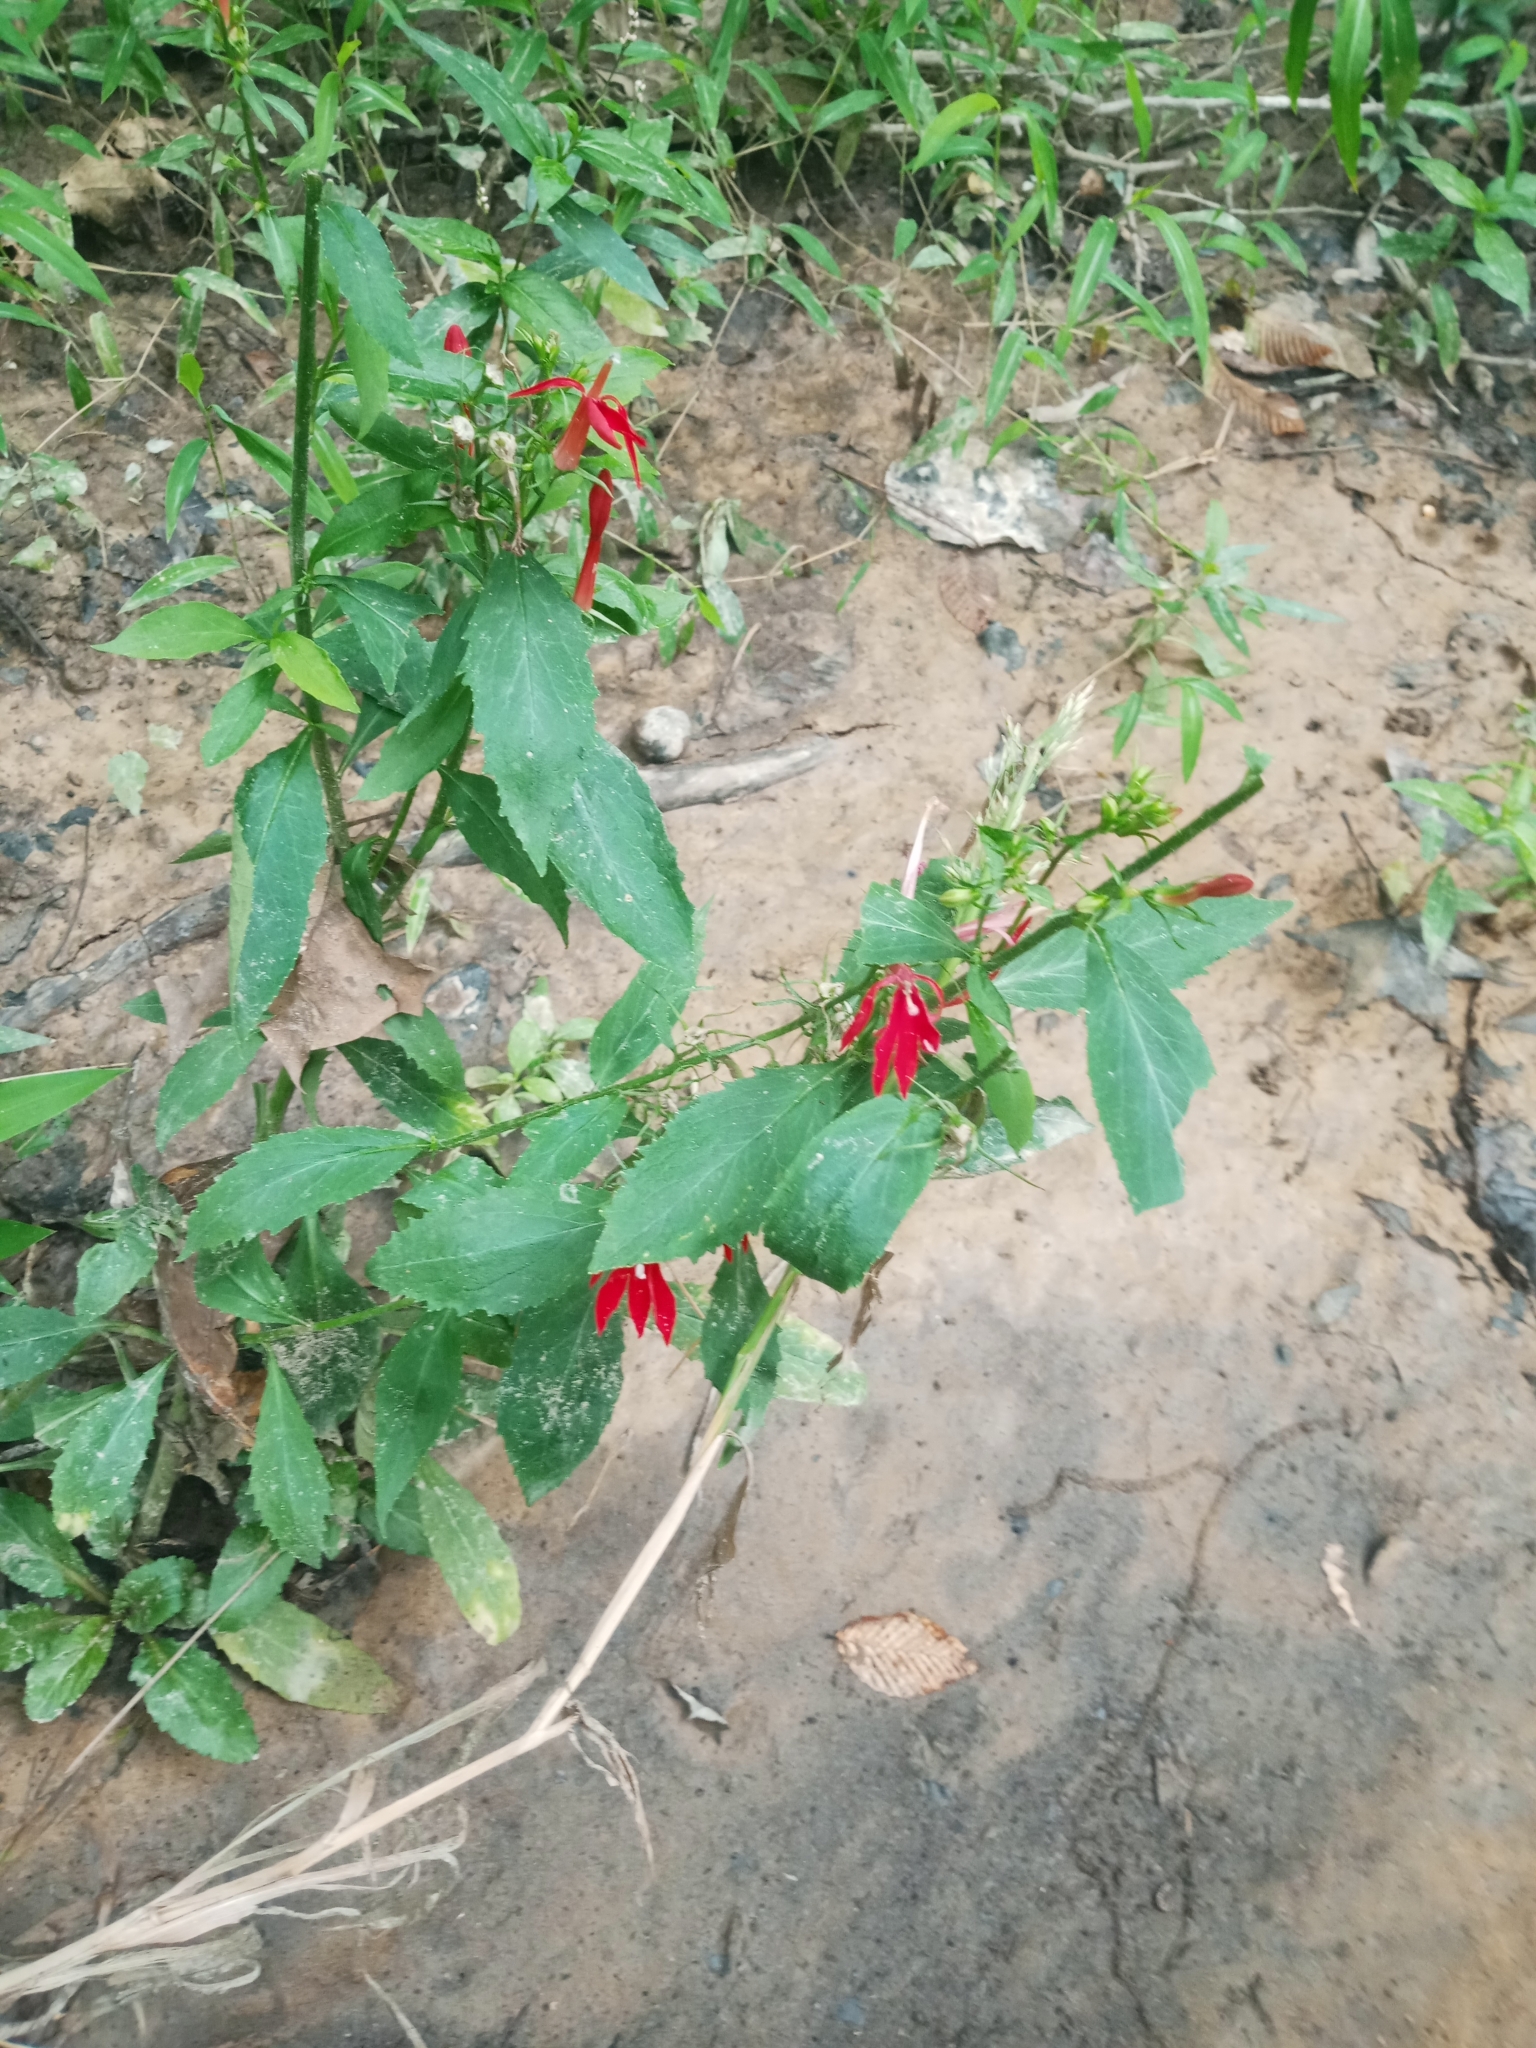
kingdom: Plantae
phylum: Tracheophyta
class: Magnoliopsida
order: Asterales
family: Campanulaceae
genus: Lobelia
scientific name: Lobelia cardinalis
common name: Cardinal flower
